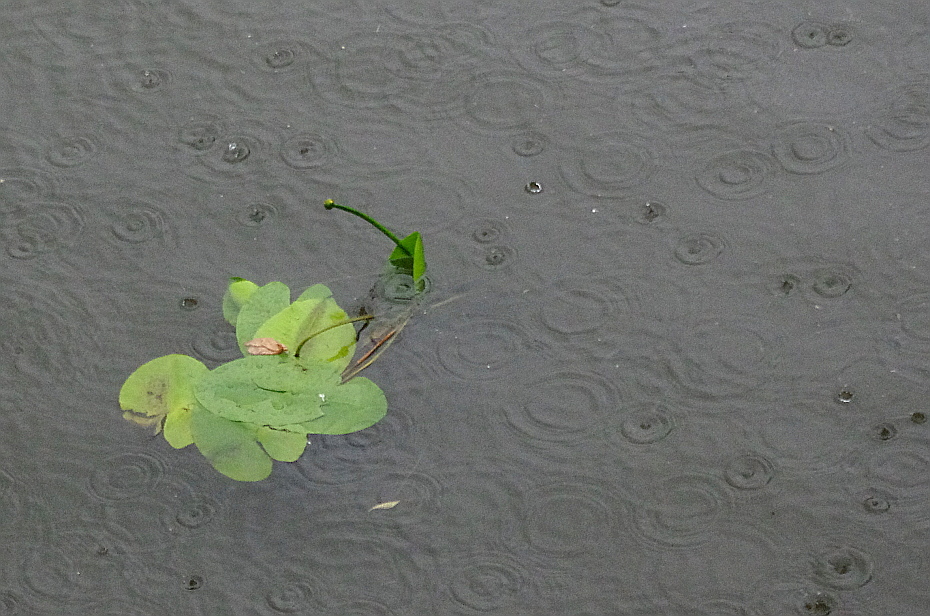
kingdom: Plantae
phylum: Tracheophyta
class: Magnoliopsida
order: Nymphaeales
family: Nymphaeaceae
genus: Nuphar
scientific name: Nuphar lutea
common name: Yellow water-lily
